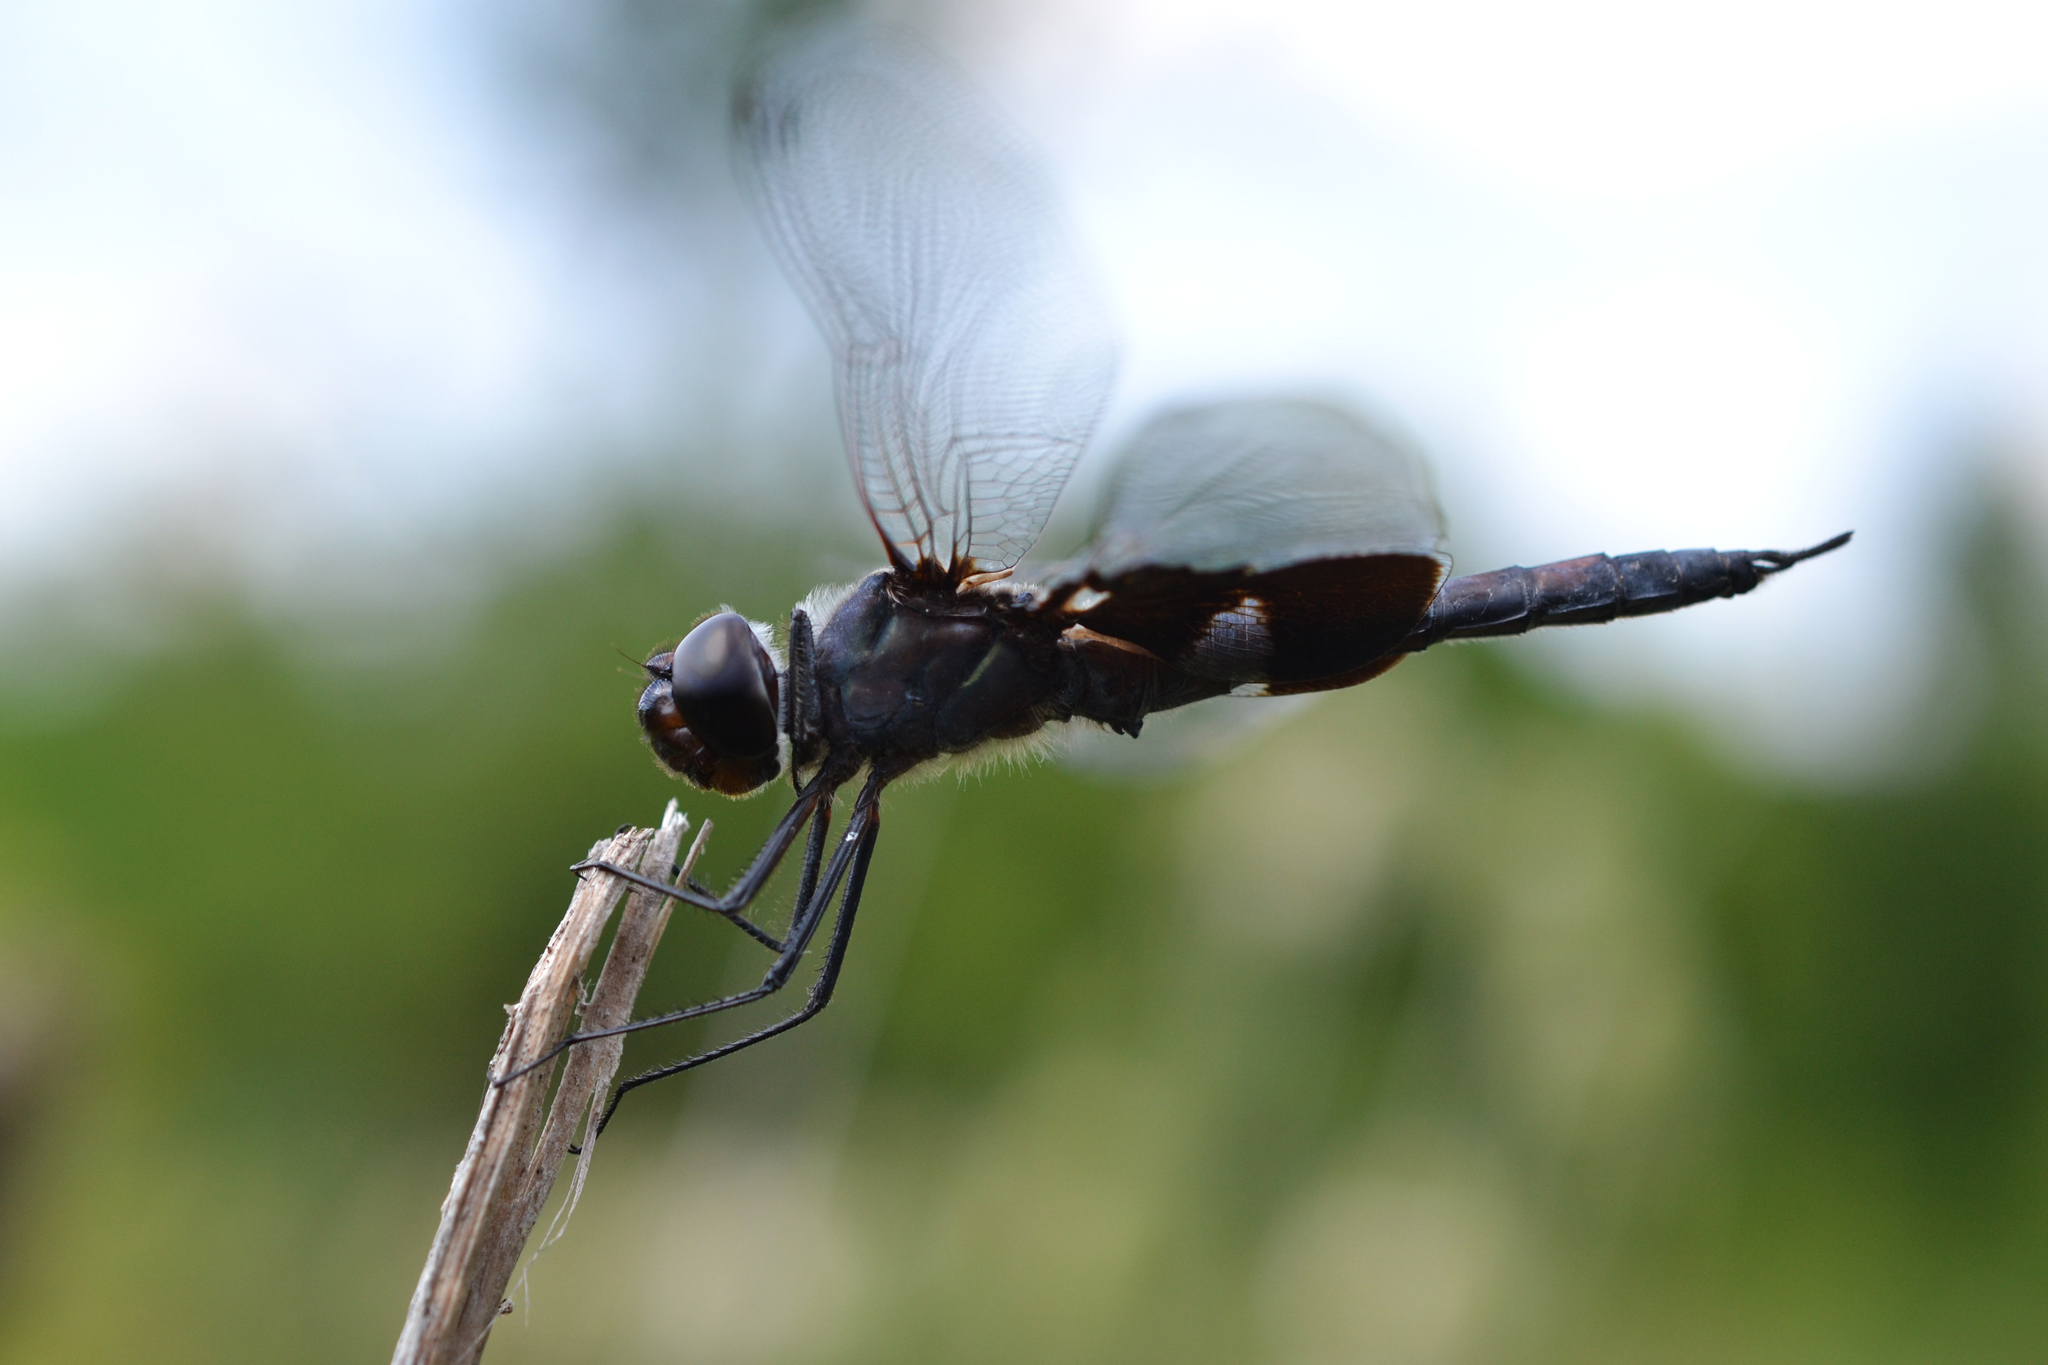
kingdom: Animalia
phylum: Arthropoda
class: Insecta
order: Odonata
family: Libellulidae
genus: Tramea
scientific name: Tramea lacerata
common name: Black saddlebags
